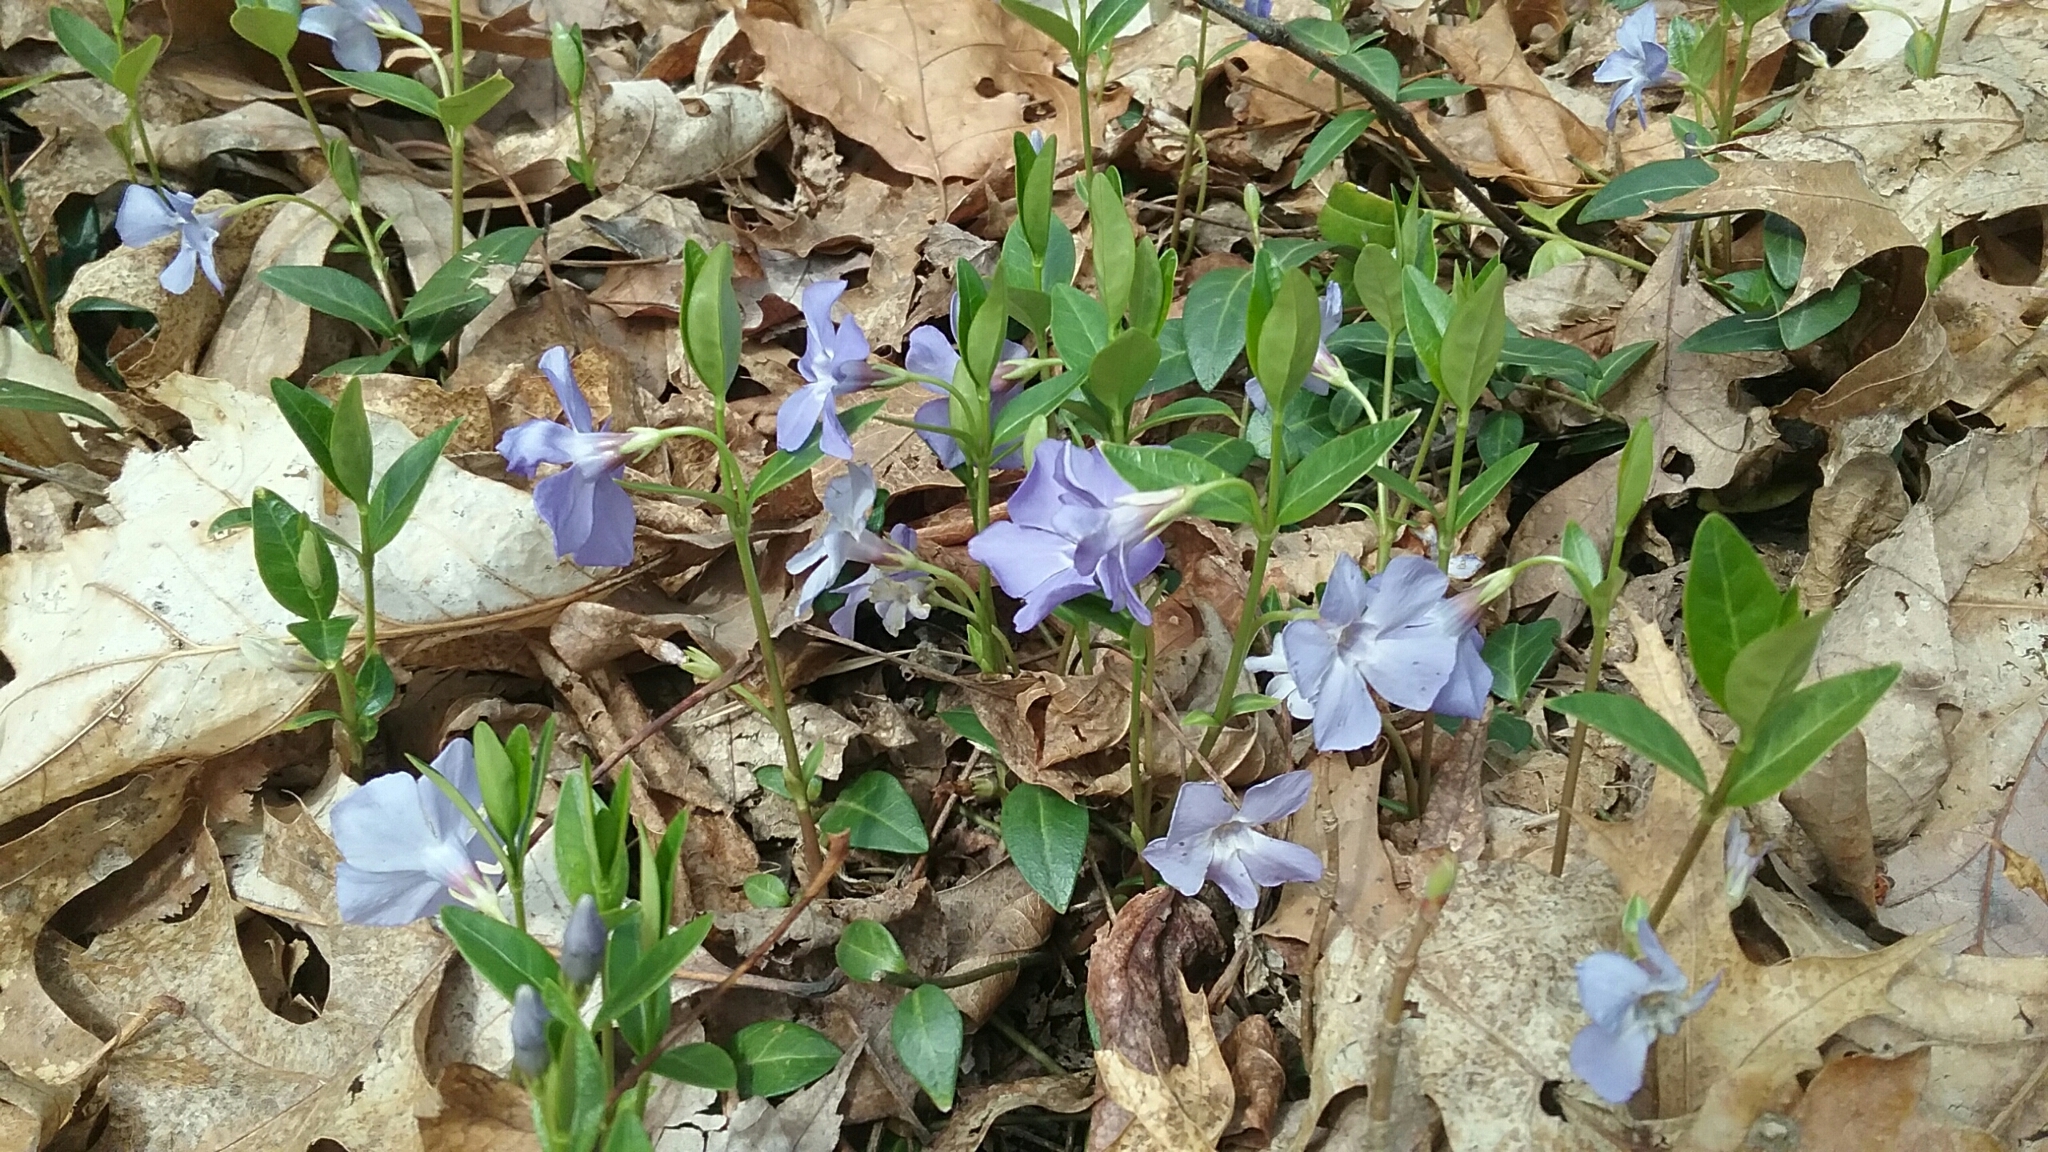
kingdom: Plantae
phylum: Tracheophyta
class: Magnoliopsida
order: Gentianales
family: Apocynaceae
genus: Vinca
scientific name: Vinca minor
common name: Lesser periwinkle
